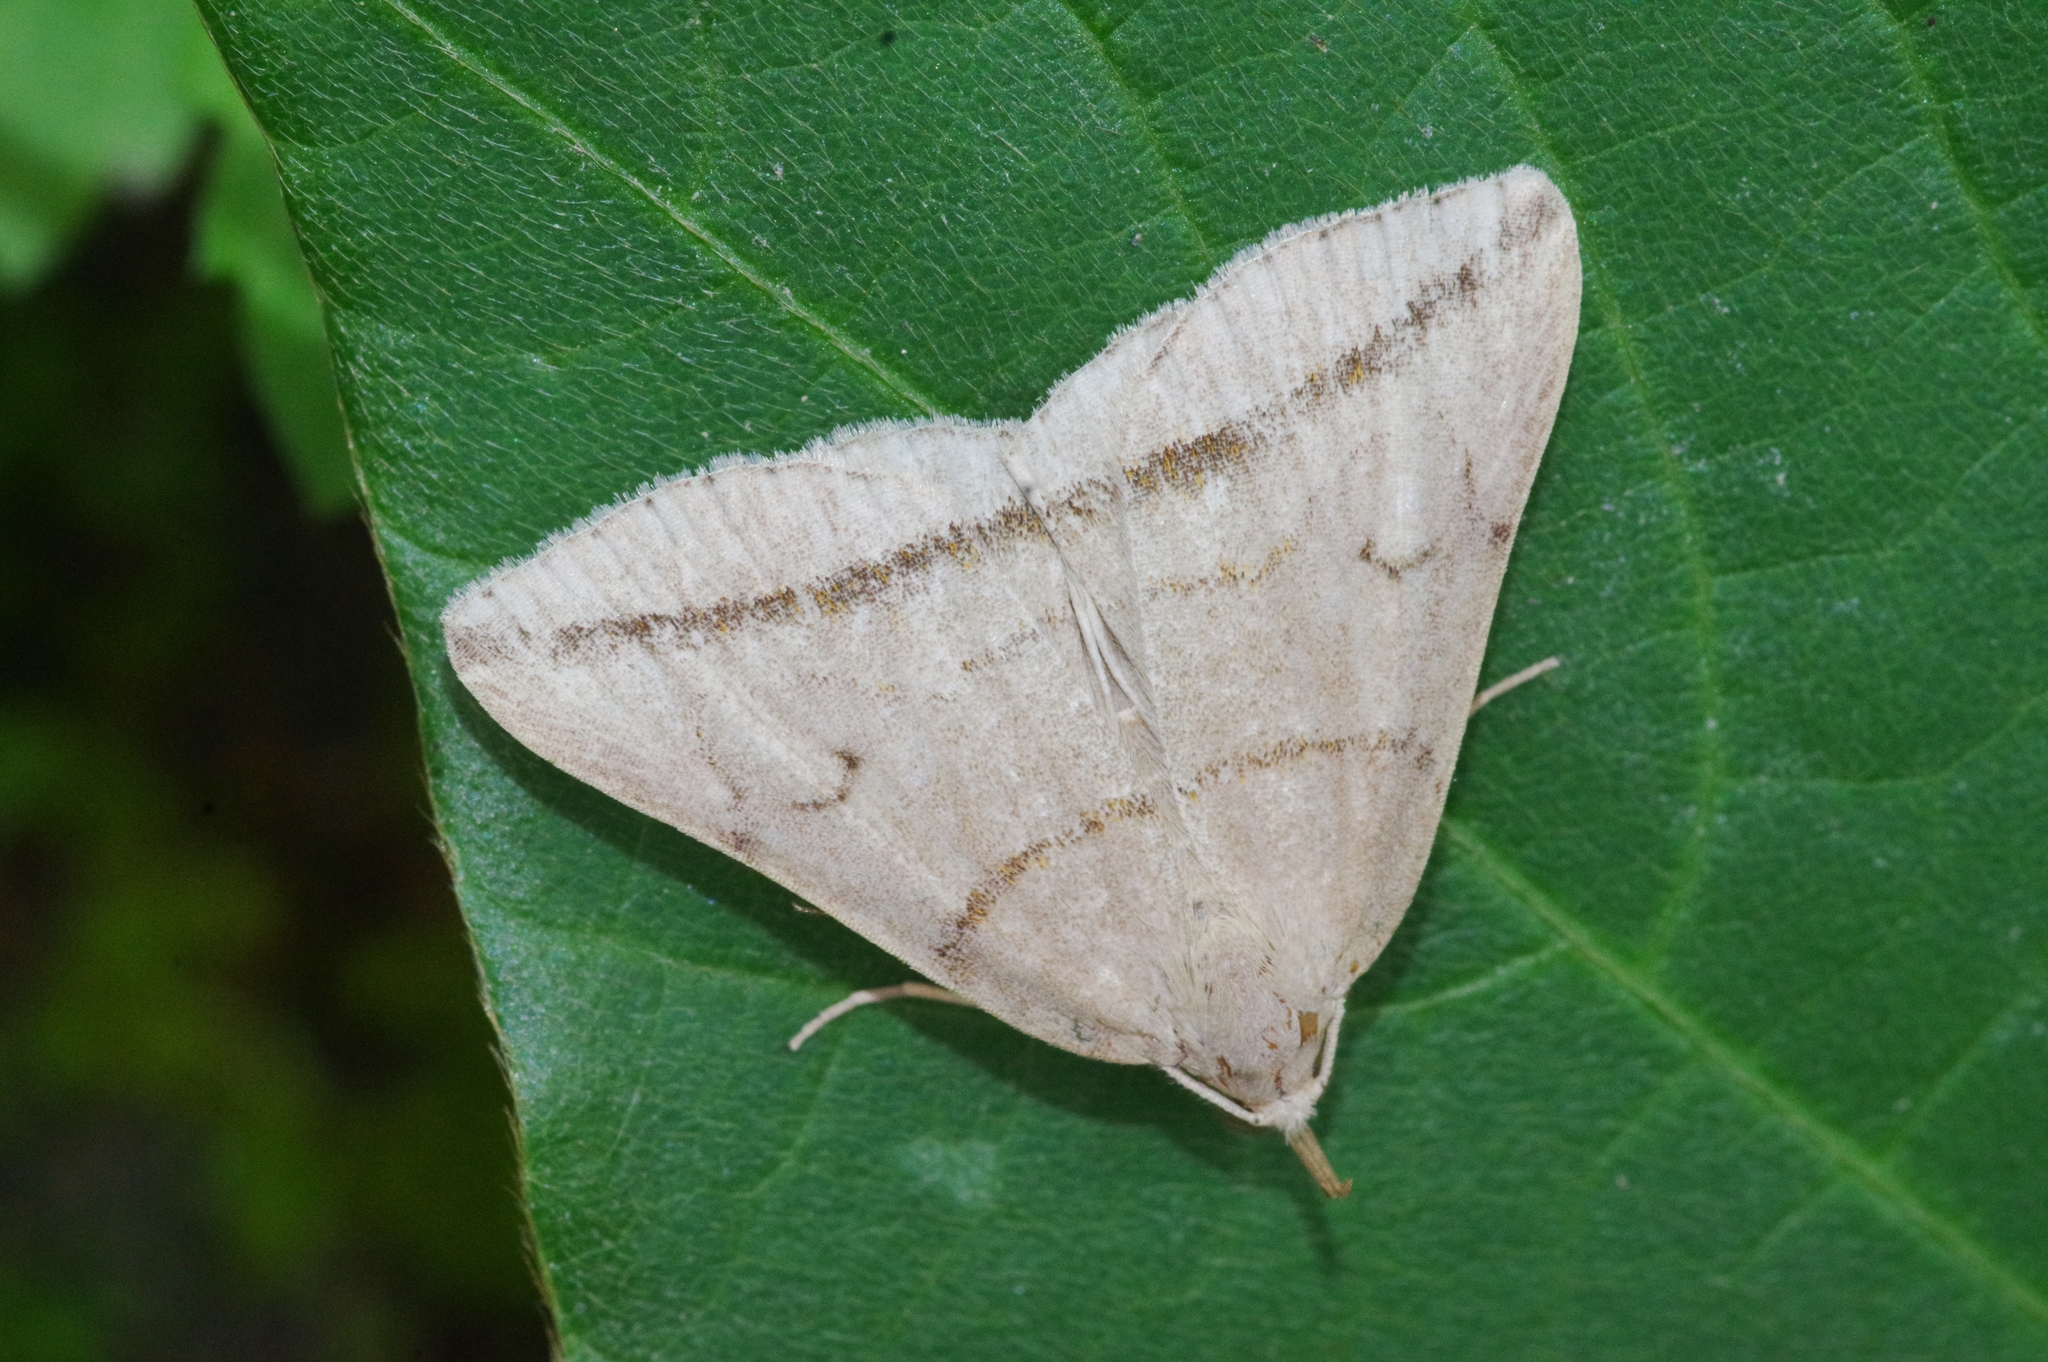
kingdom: Animalia
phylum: Arthropoda
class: Insecta
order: Lepidoptera
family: Erebidae
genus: Zanclognatha
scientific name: Zanclognatha griselda
